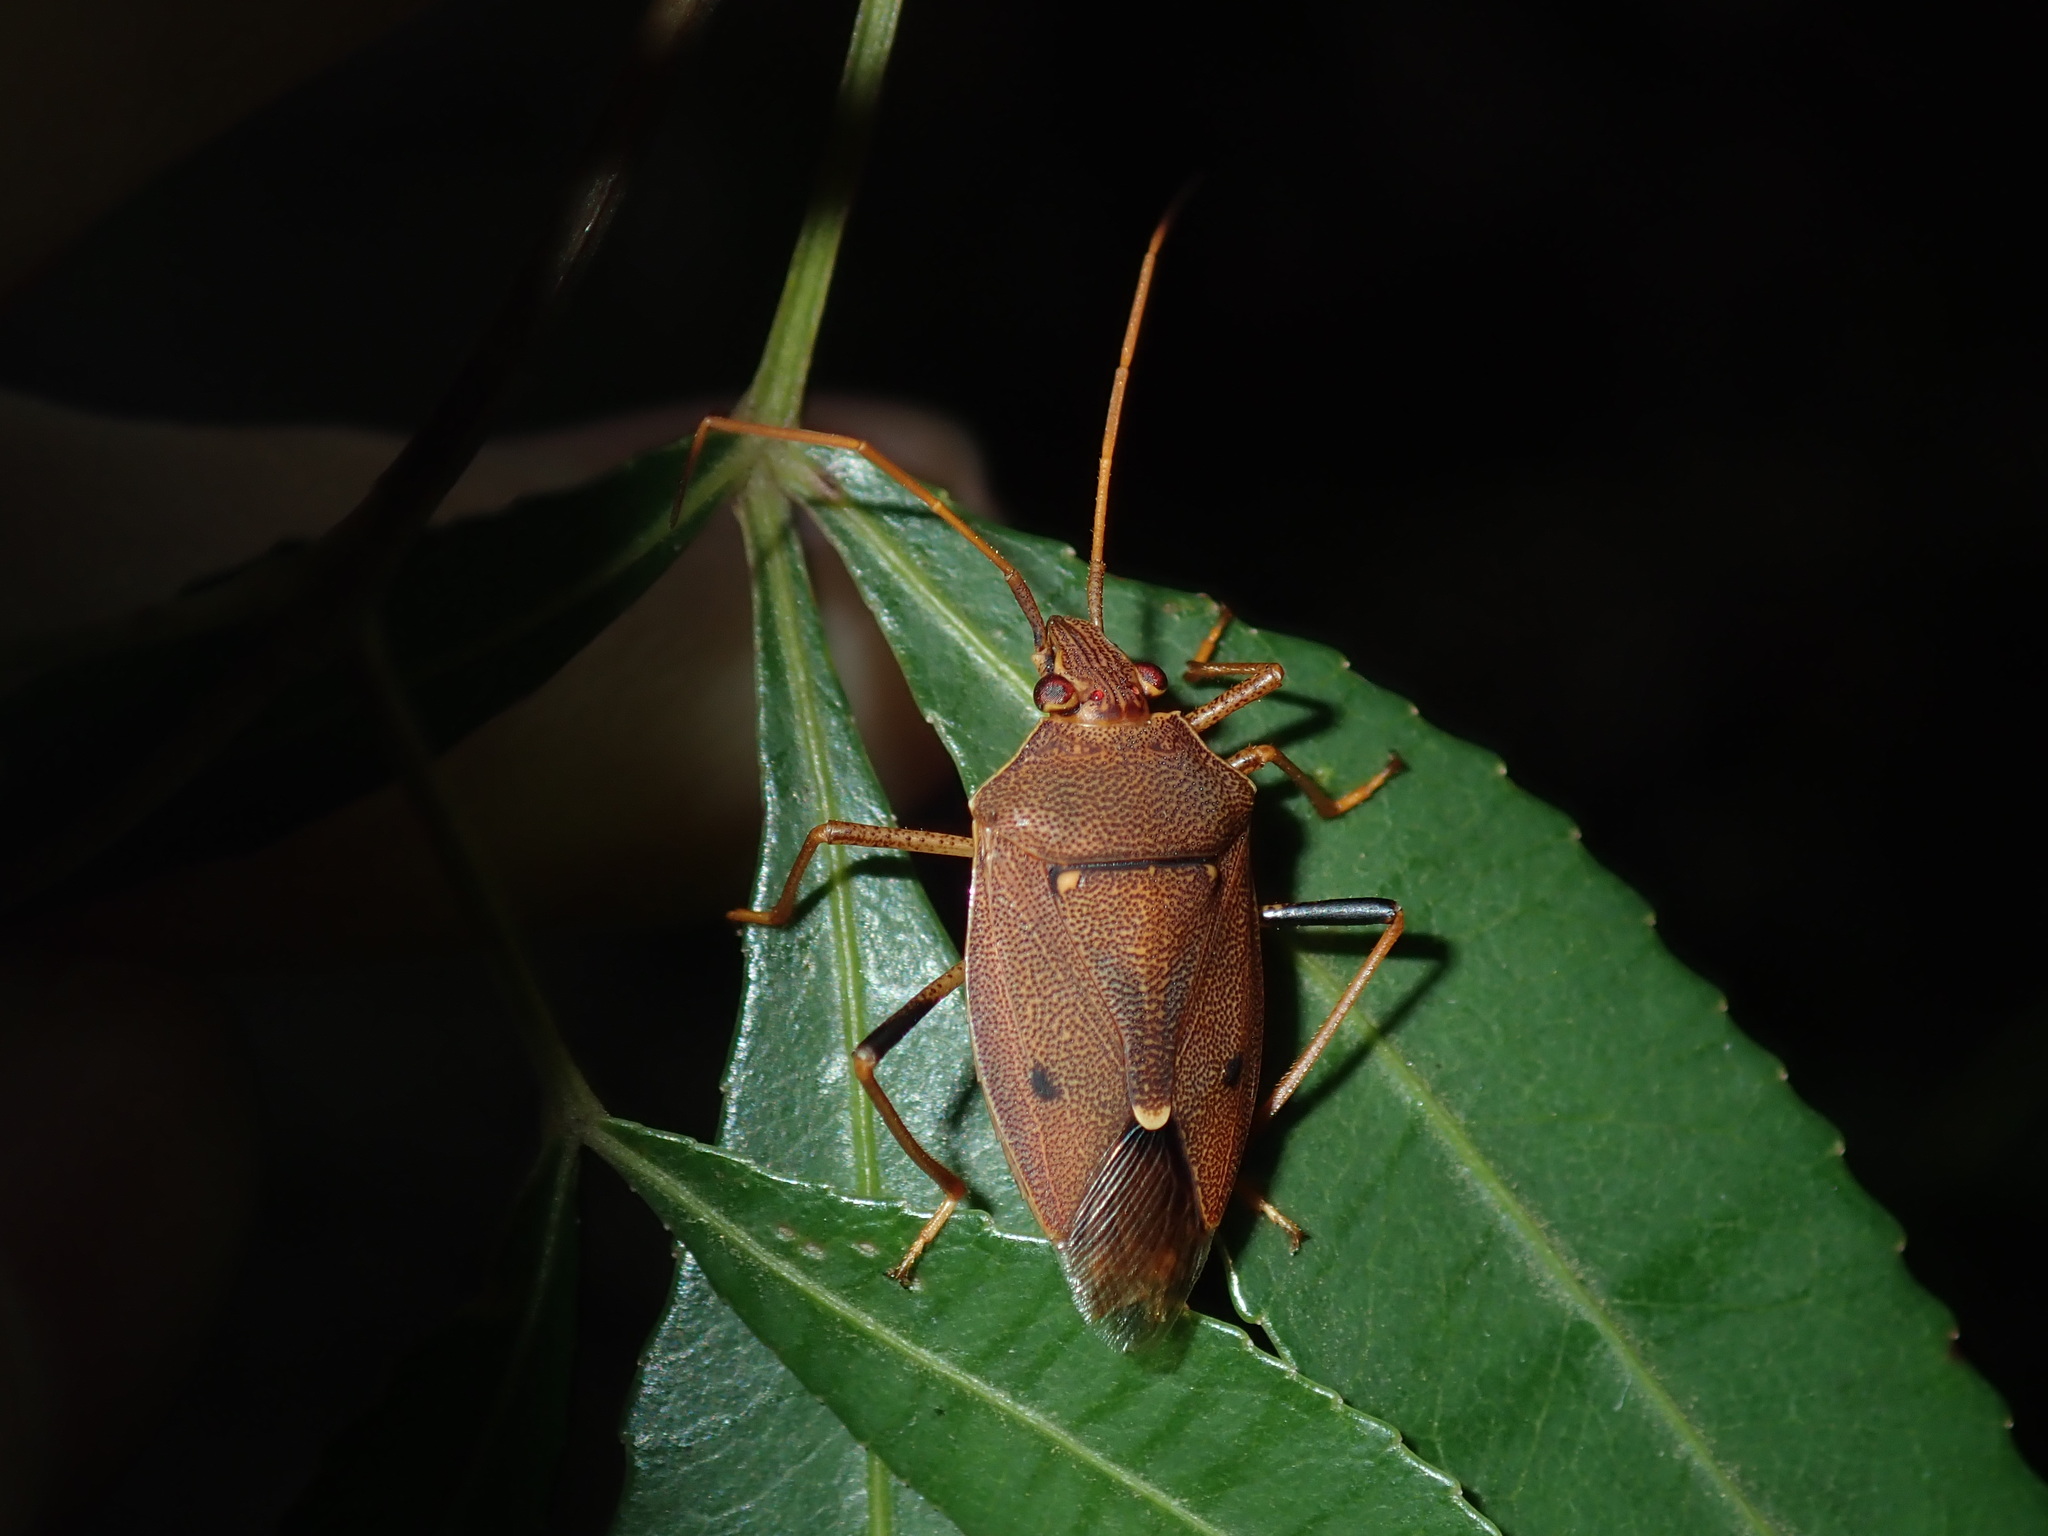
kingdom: Animalia
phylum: Arthropoda
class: Insecta
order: Hemiptera
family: Pentatomidae
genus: Poecilometis
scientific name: Poecilometis
